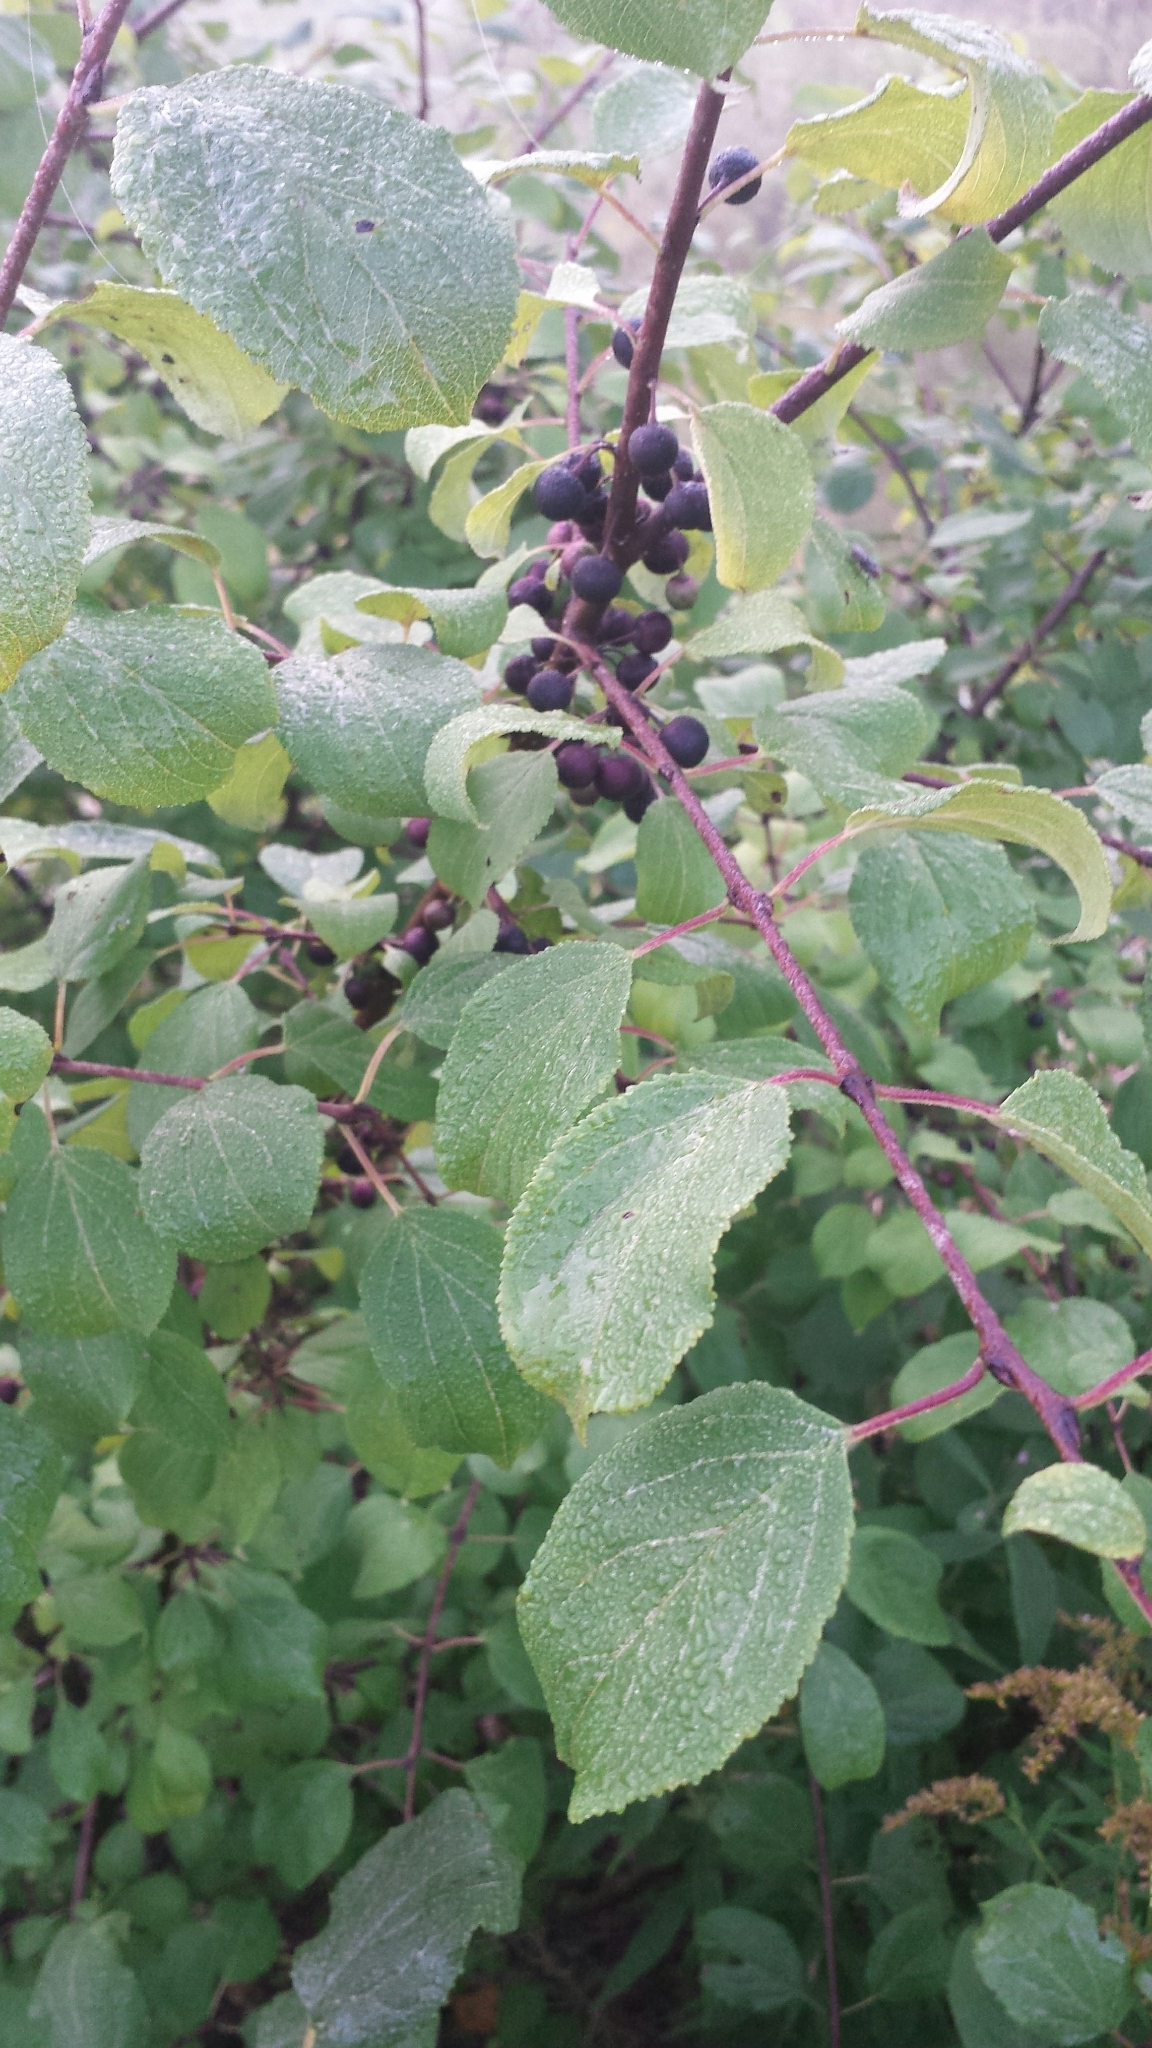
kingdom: Plantae
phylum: Tracheophyta
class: Magnoliopsida
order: Rosales
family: Rhamnaceae
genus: Rhamnus
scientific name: Rhamnus cathartica
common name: Common buckthorn
